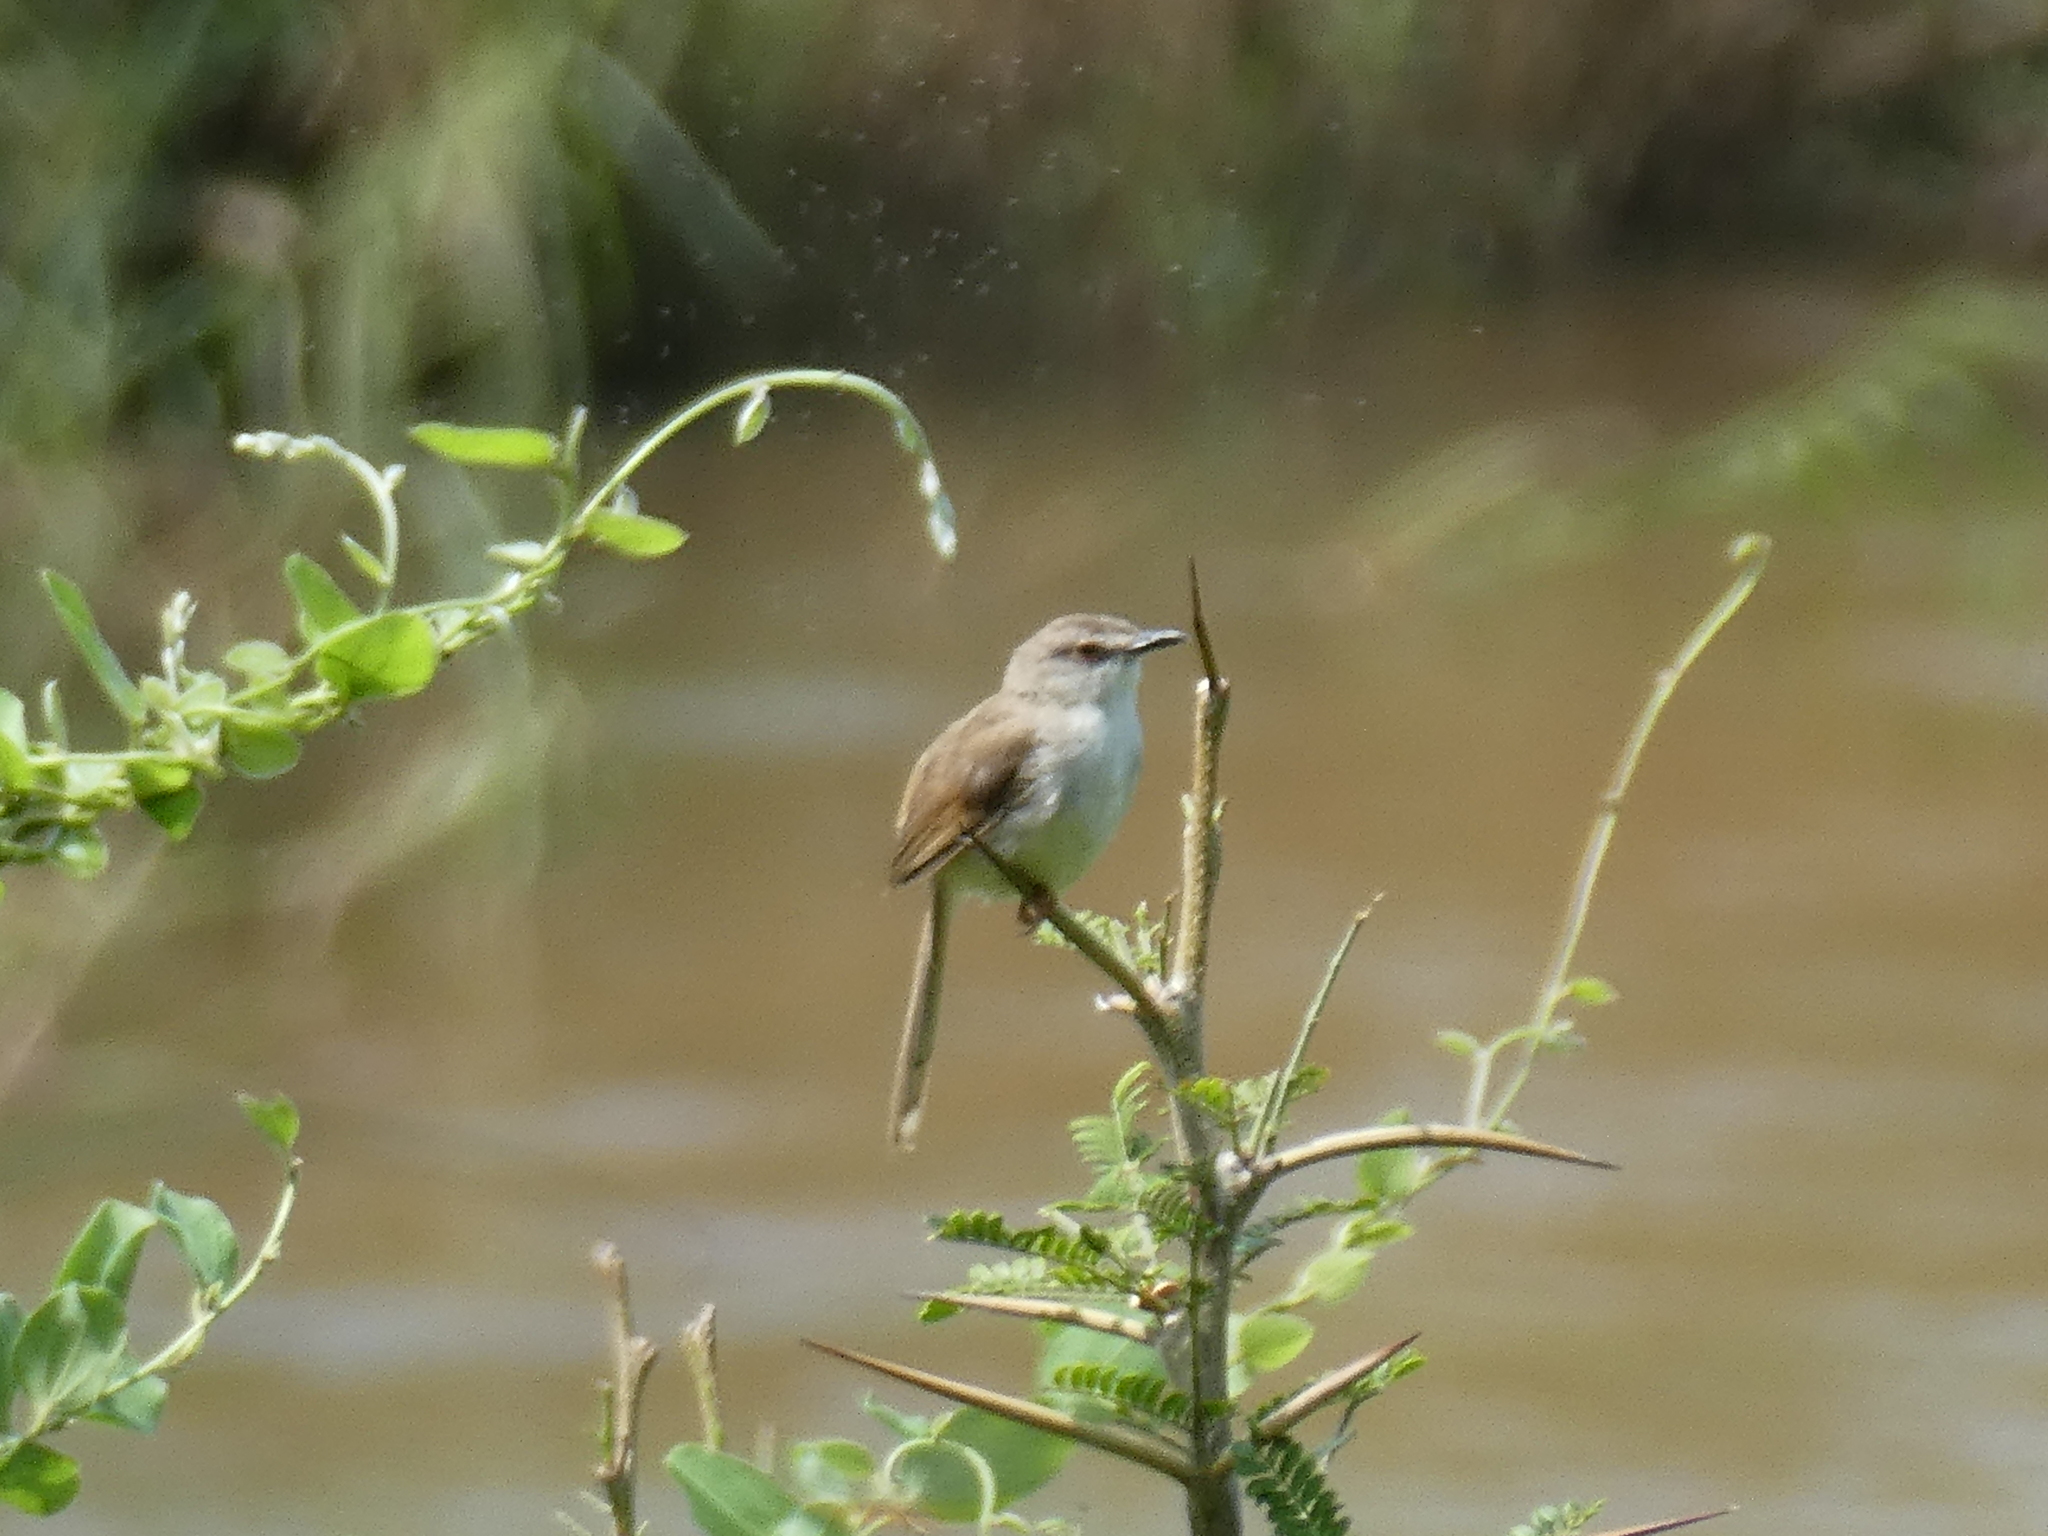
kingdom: Animalia
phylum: Chordata
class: Aves
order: Passeriformes
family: Cisticolidae
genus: Prinia
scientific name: Prinia subflava
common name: Tawny-flanked prinia
